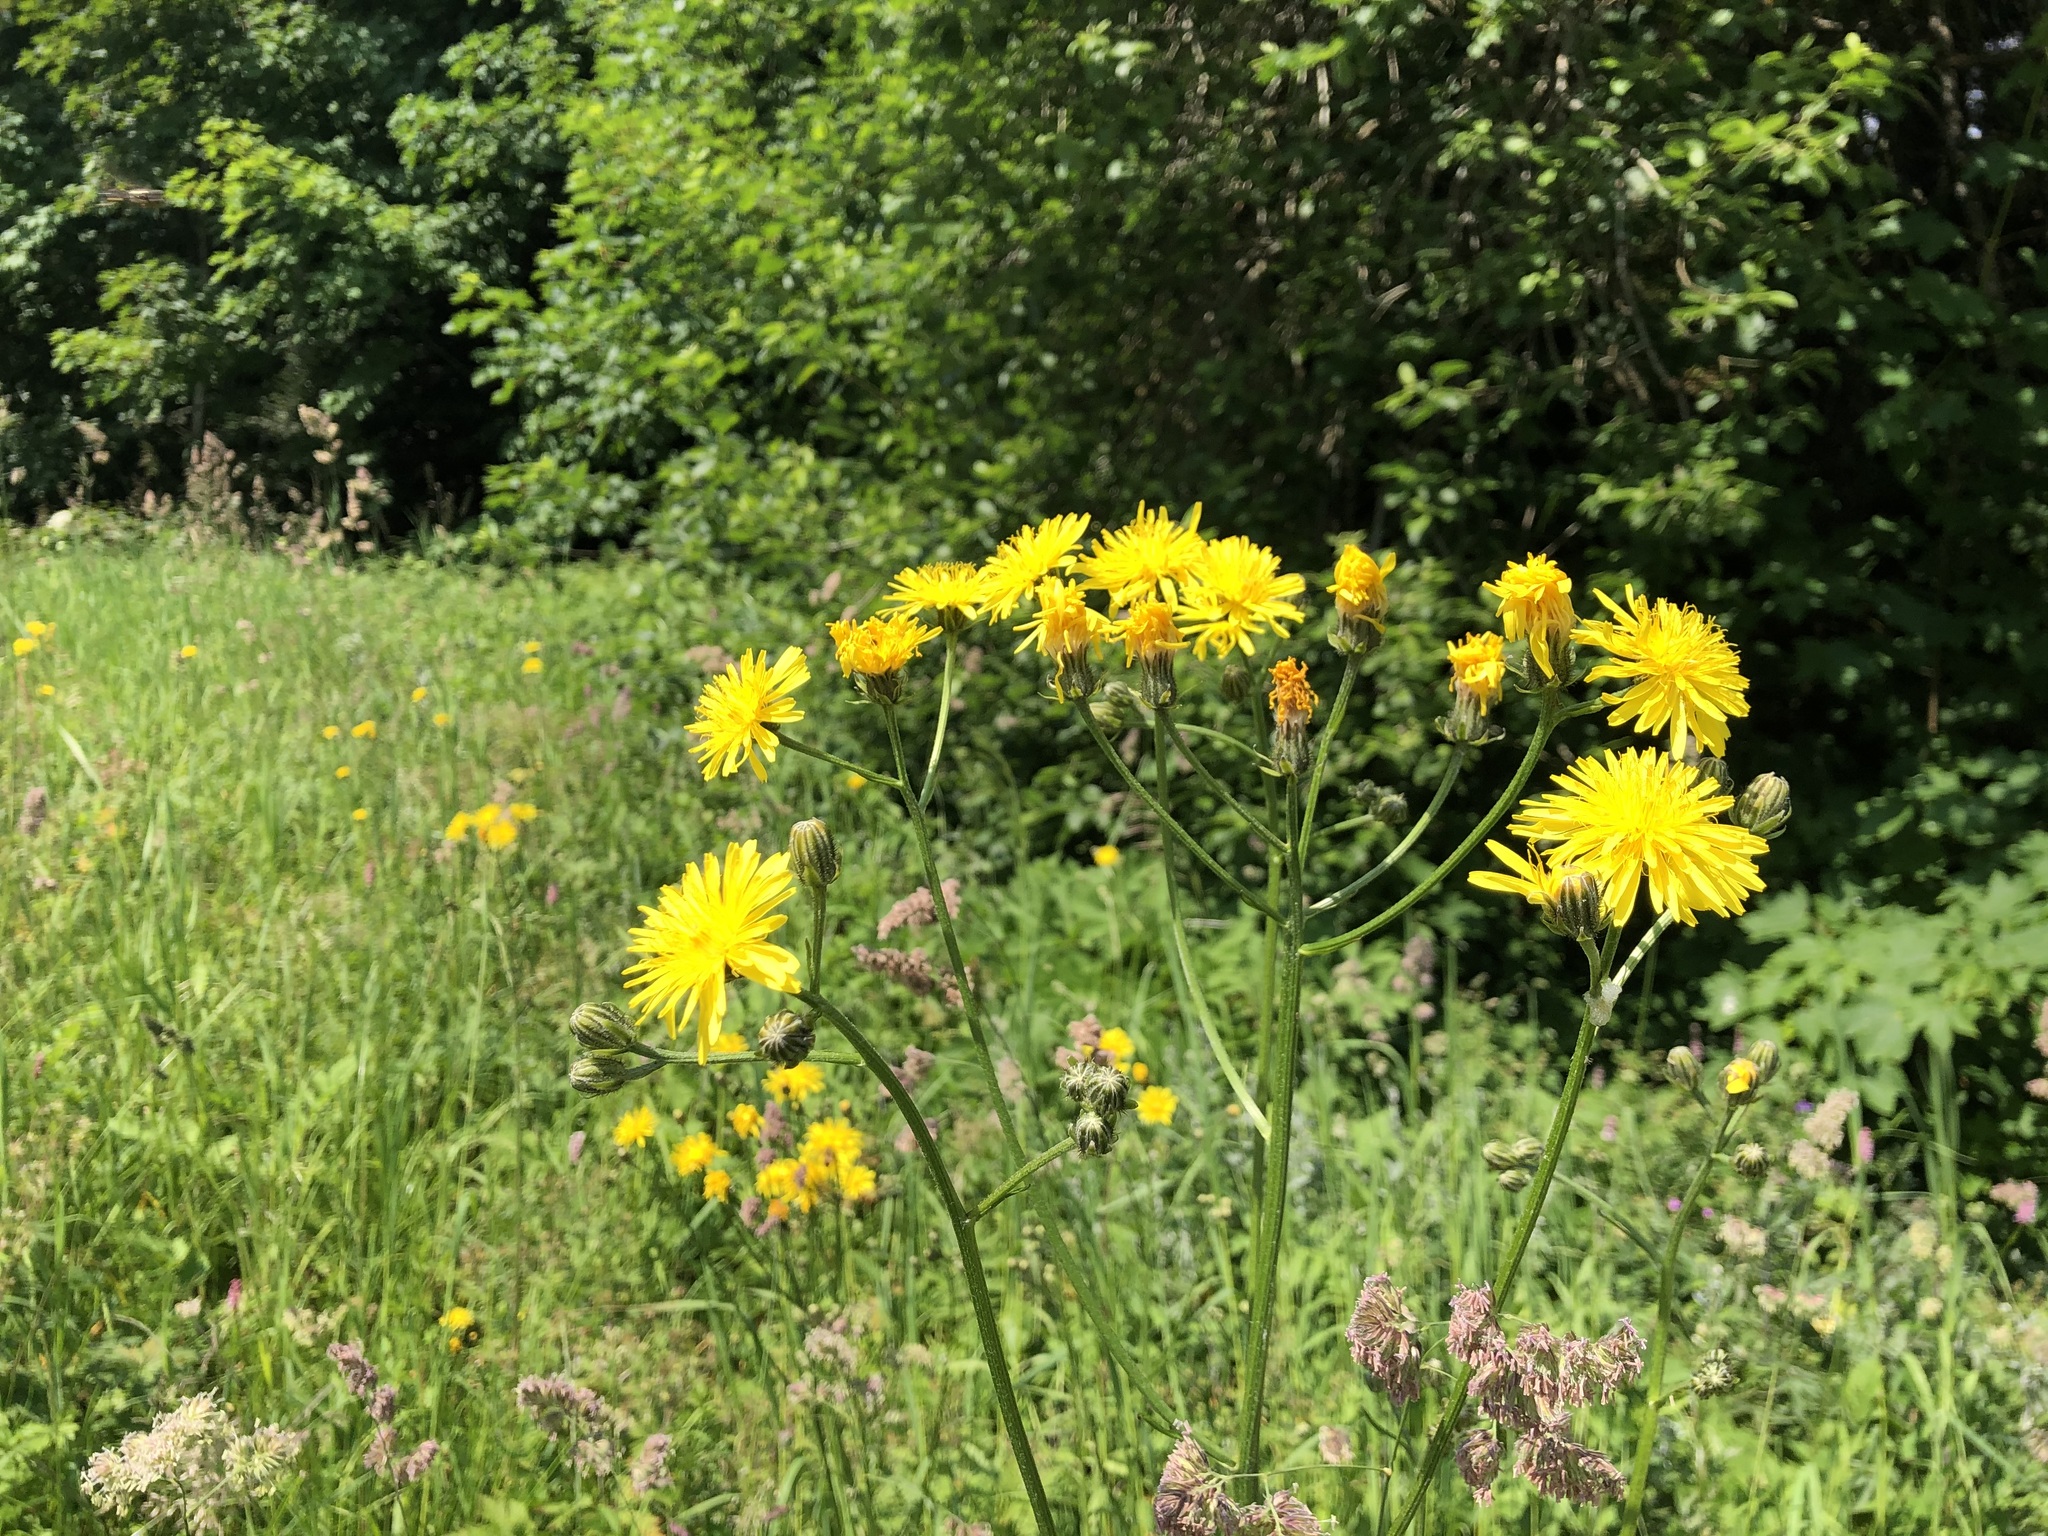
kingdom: Plantae
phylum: Tracheophyta
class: Magnoliopsida
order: Asterales
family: Asteraceae
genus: Crepis
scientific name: Crepis biennis
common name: Rough hawk's-beard
